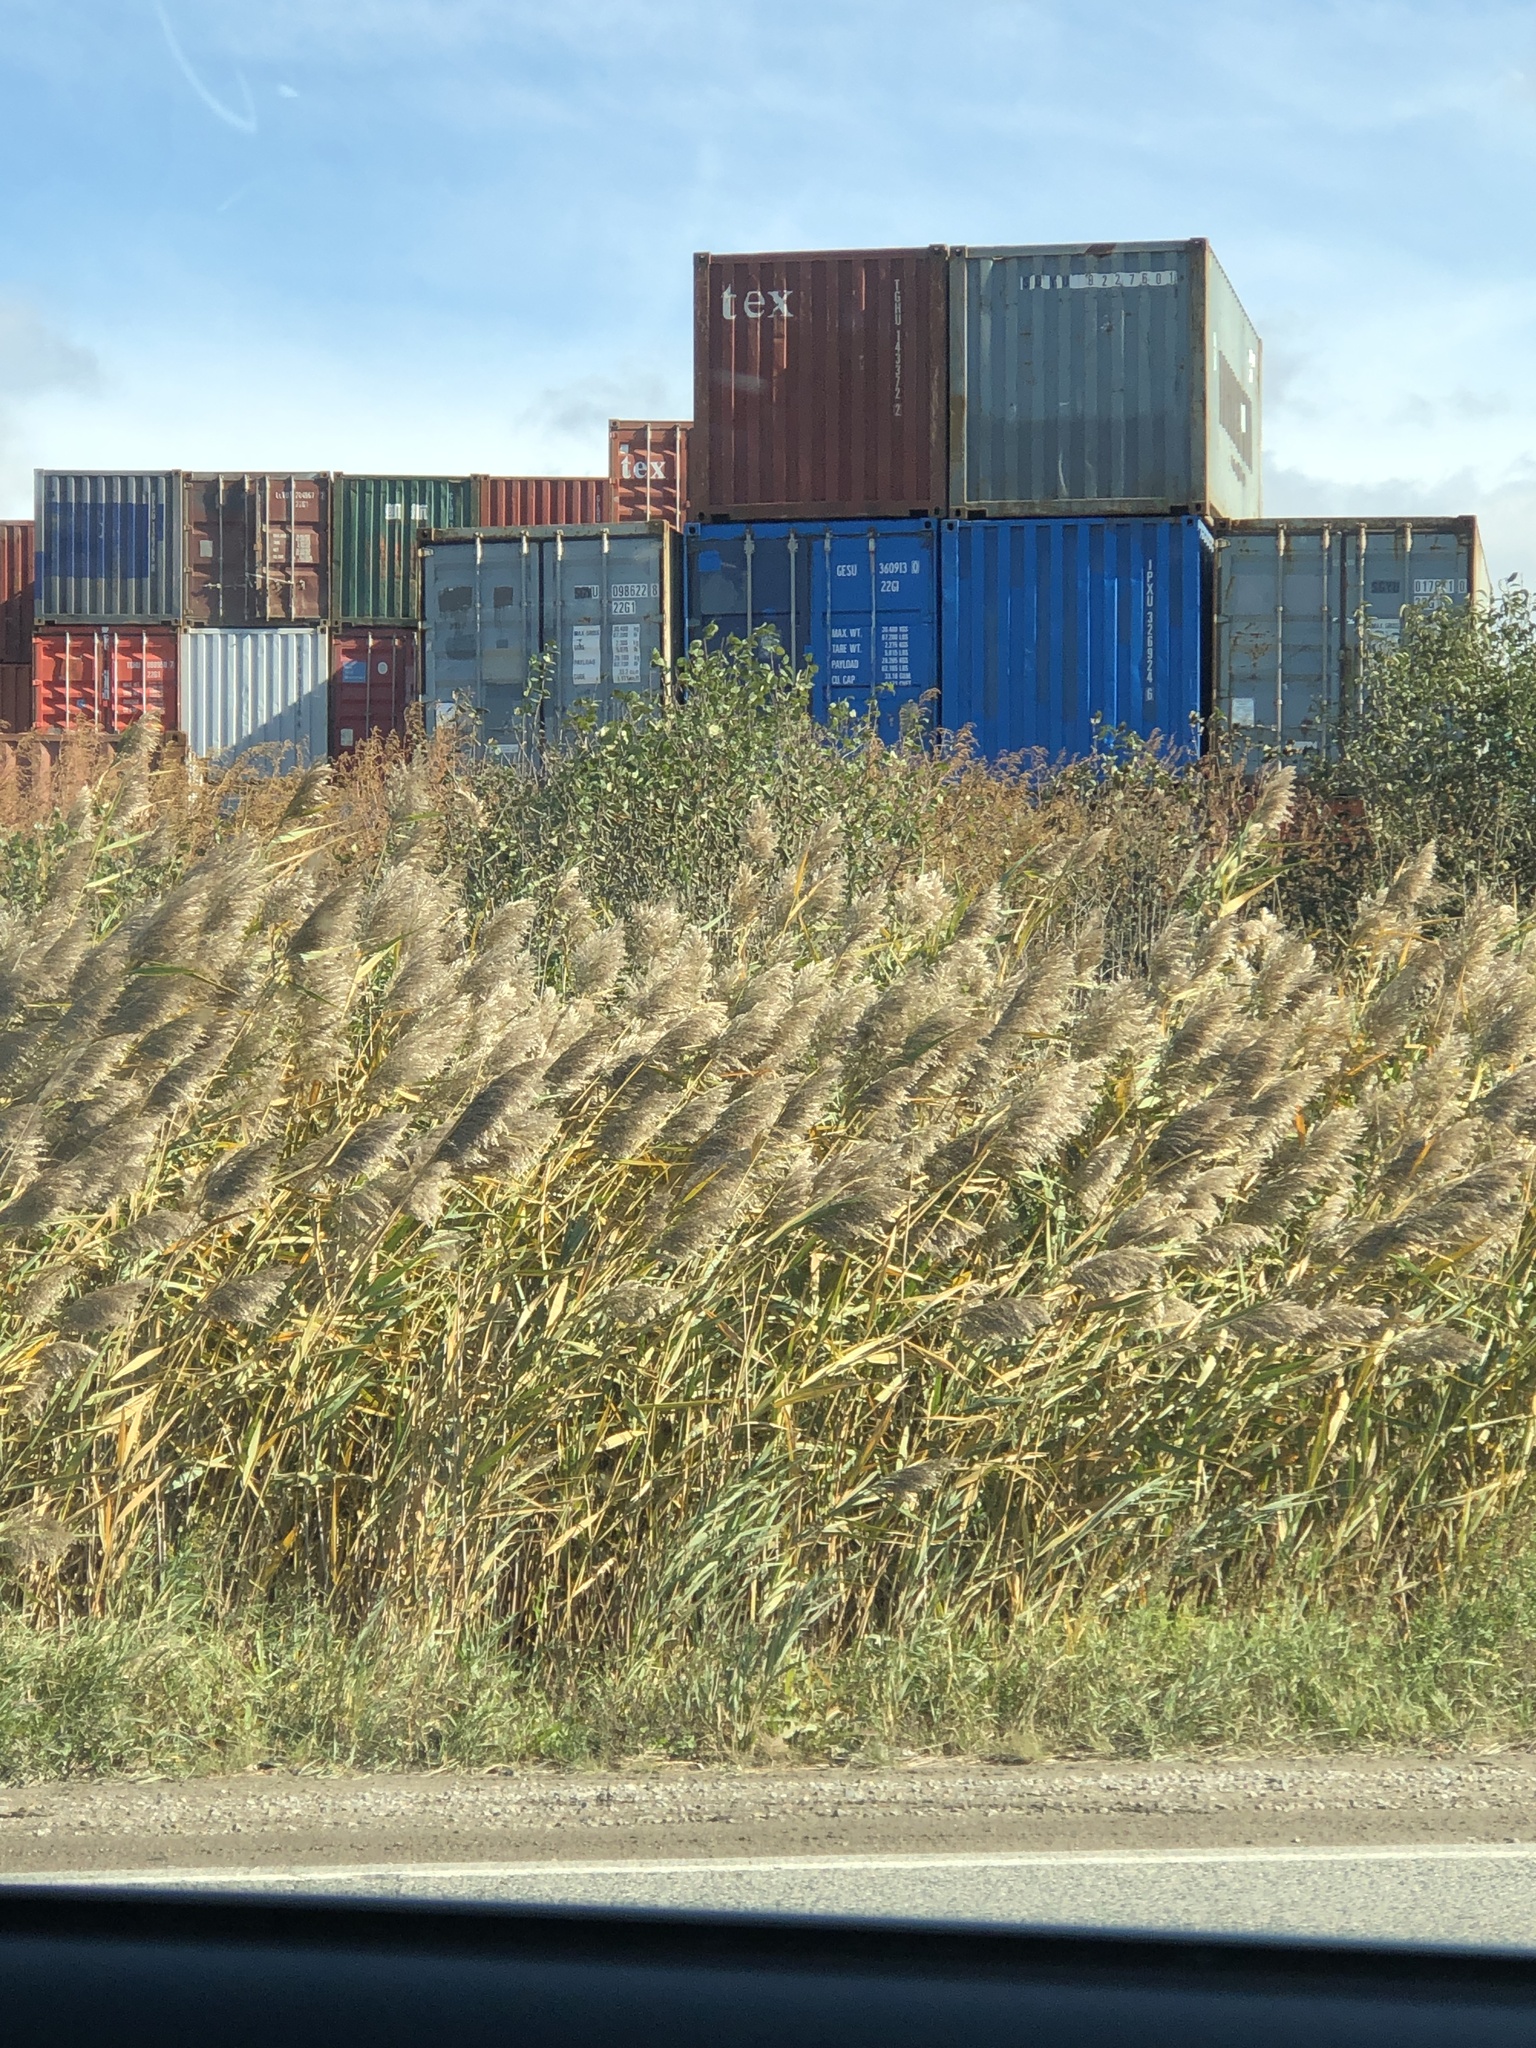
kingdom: Plantae
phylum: Tracheophyta
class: Liliopsida
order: Poales
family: Poaceae
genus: Phragmites
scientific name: Phragmites australis
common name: Common reed
